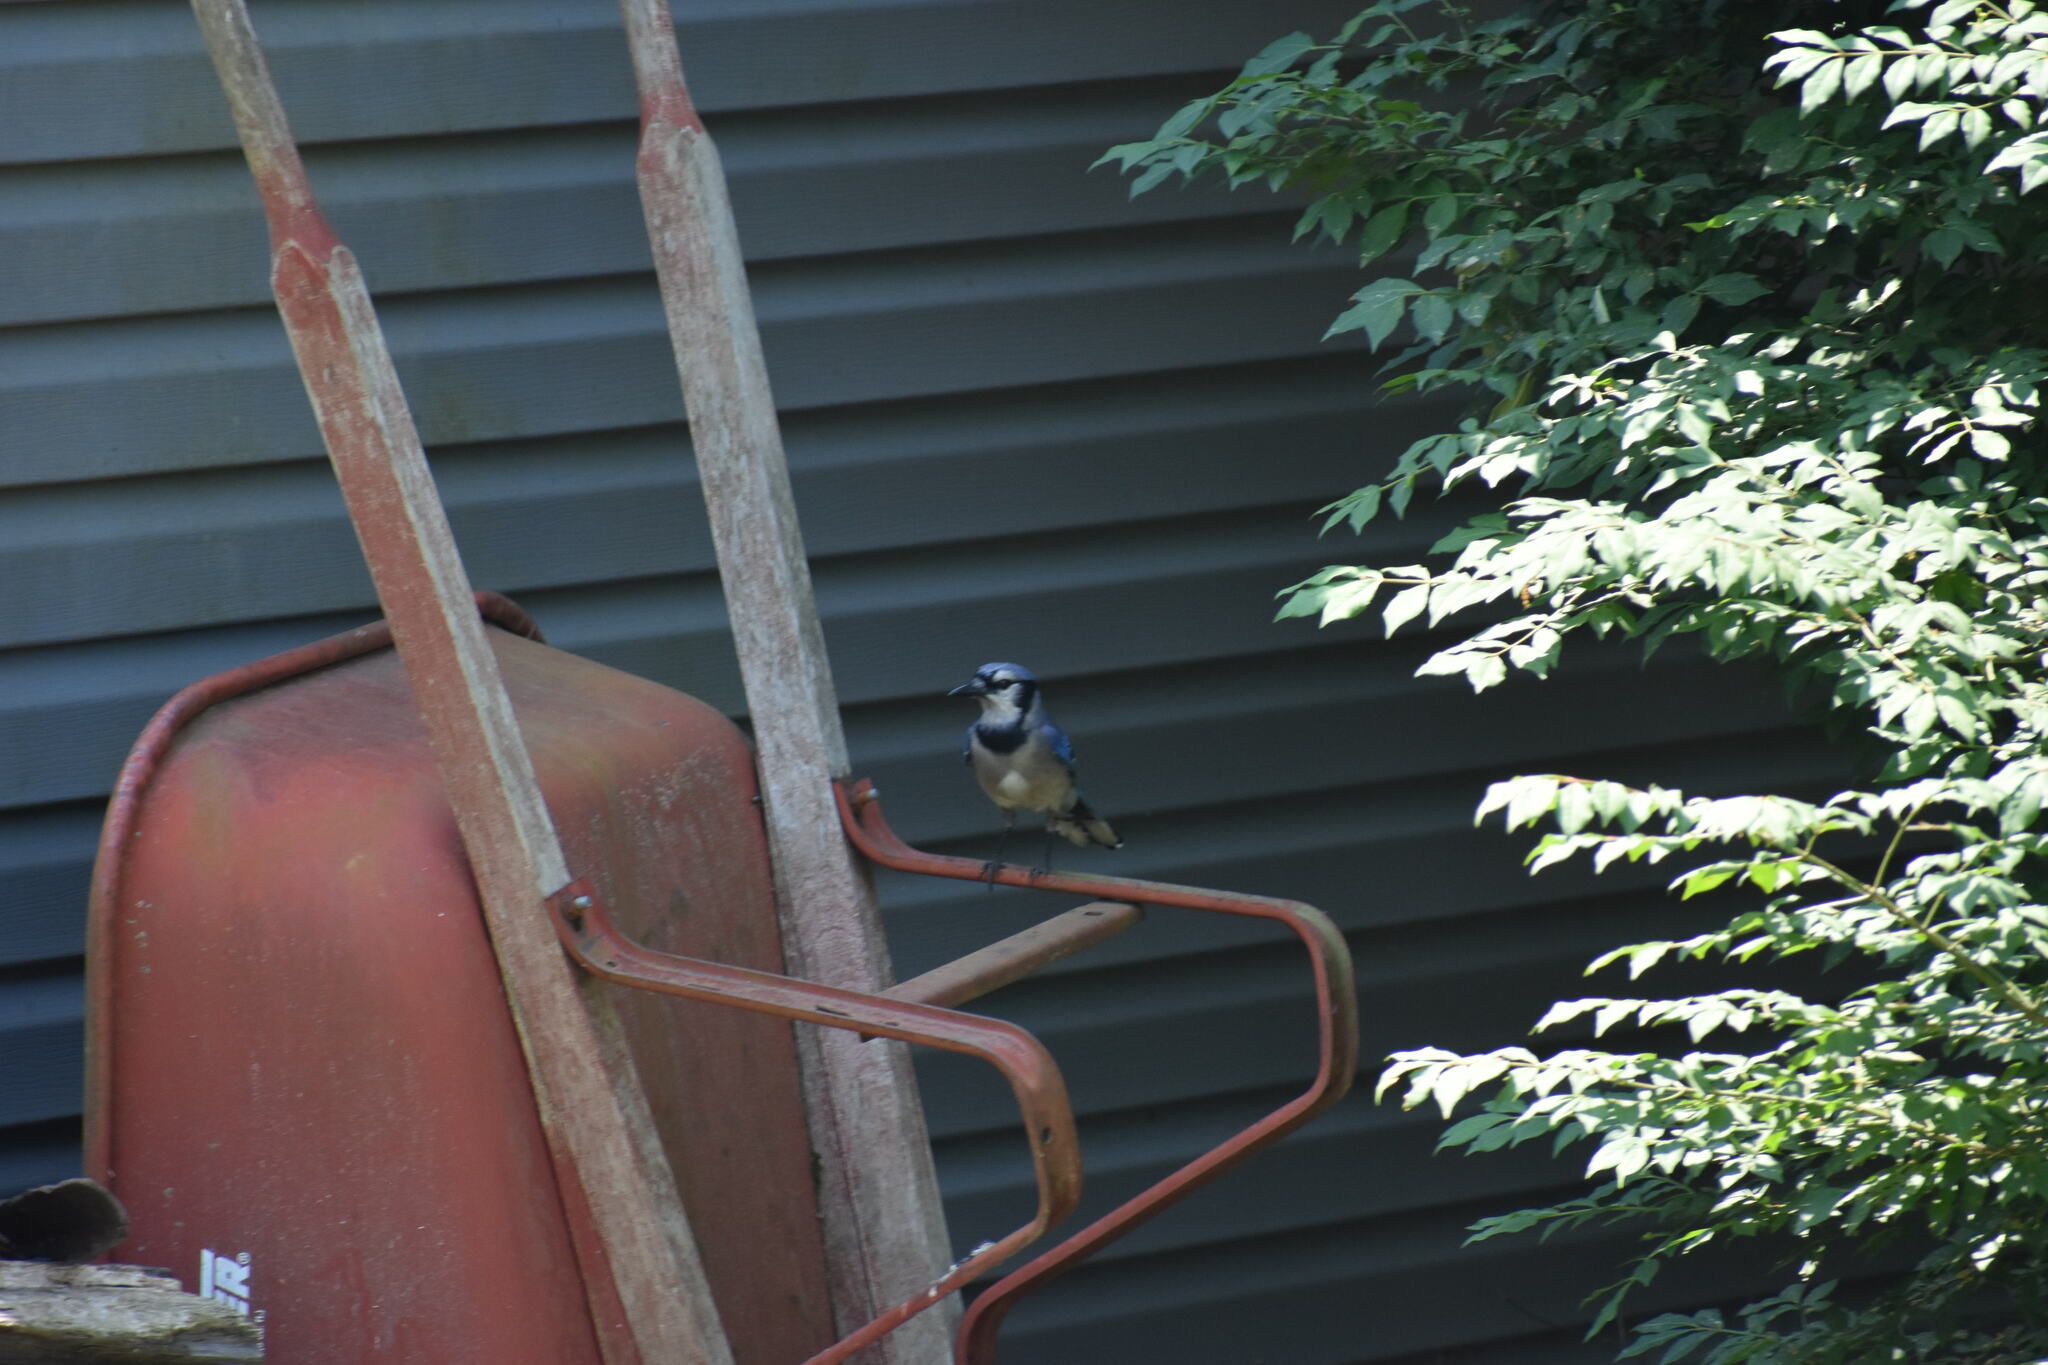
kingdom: Animalia
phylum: Chordata
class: Aves
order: Passeriformes
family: Corvidae
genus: Cyanocitta
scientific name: Cyanocitta cristata
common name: Blue jay
